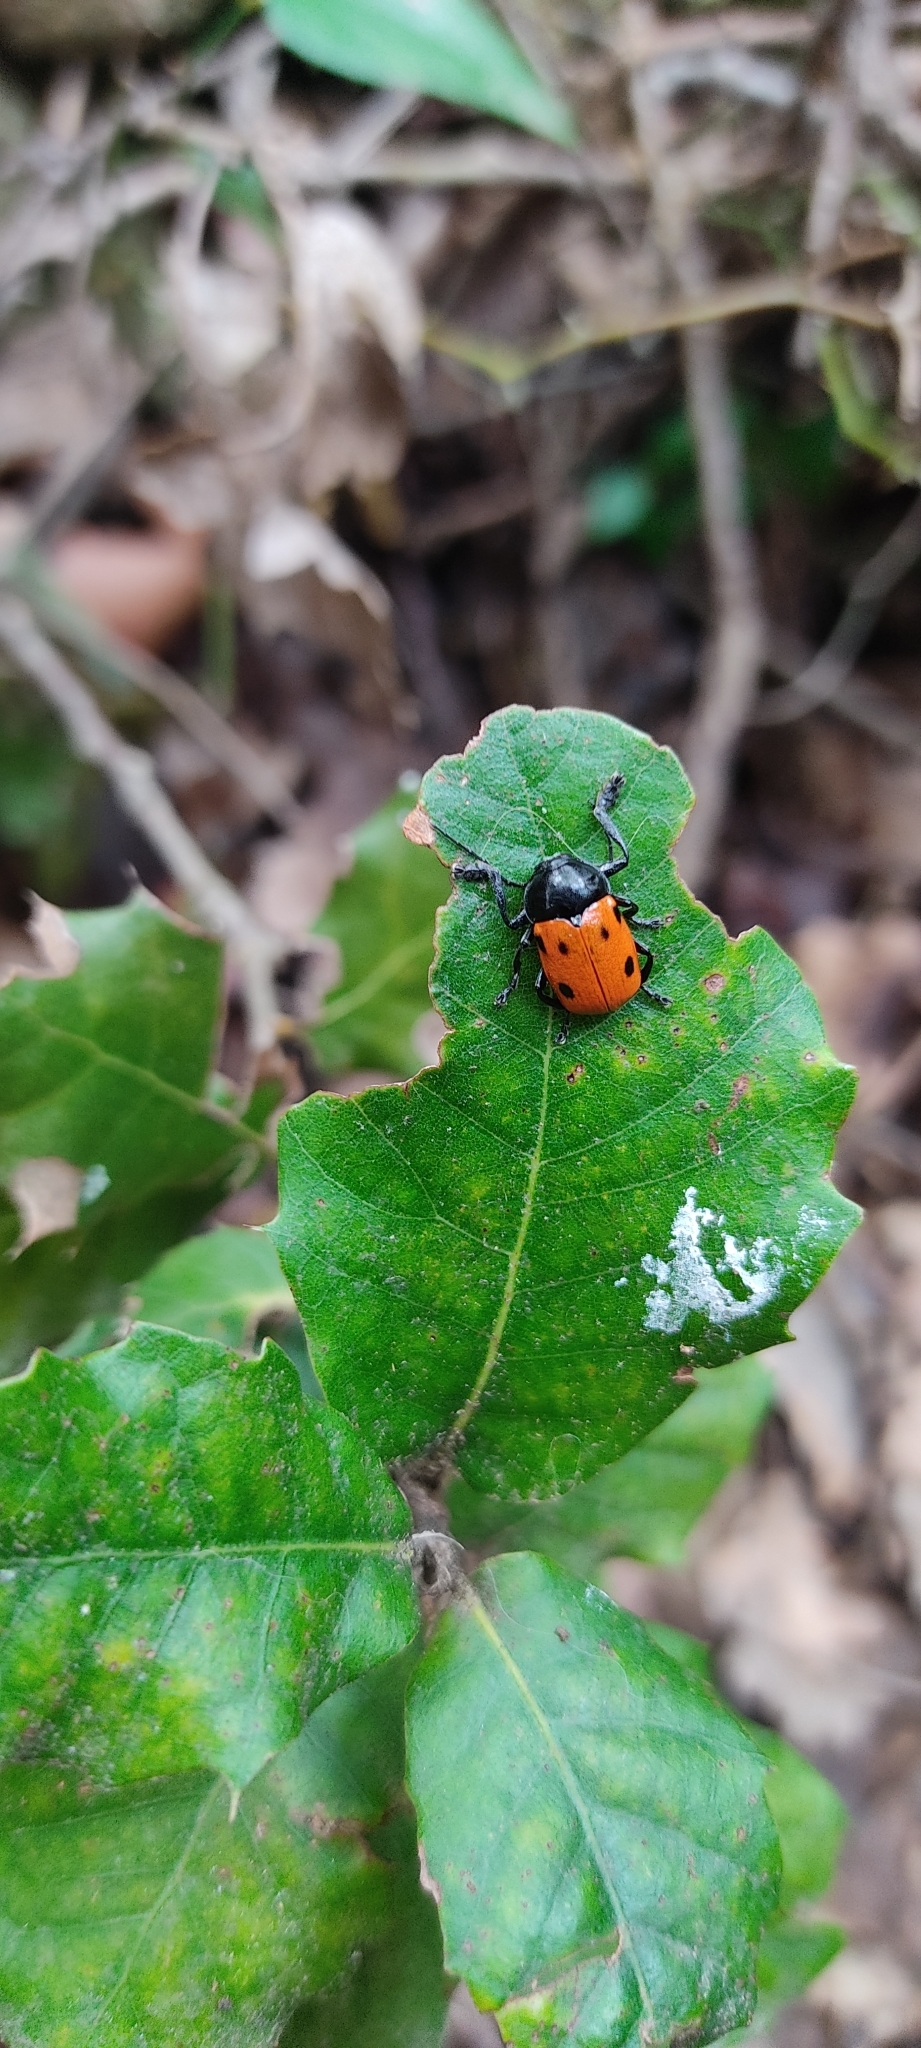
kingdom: Animalia
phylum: Arthropoda
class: Insecta
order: Coleoptera
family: Chrysomelidae
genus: Cryptocephalus
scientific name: Cryptocephalus loreyi
